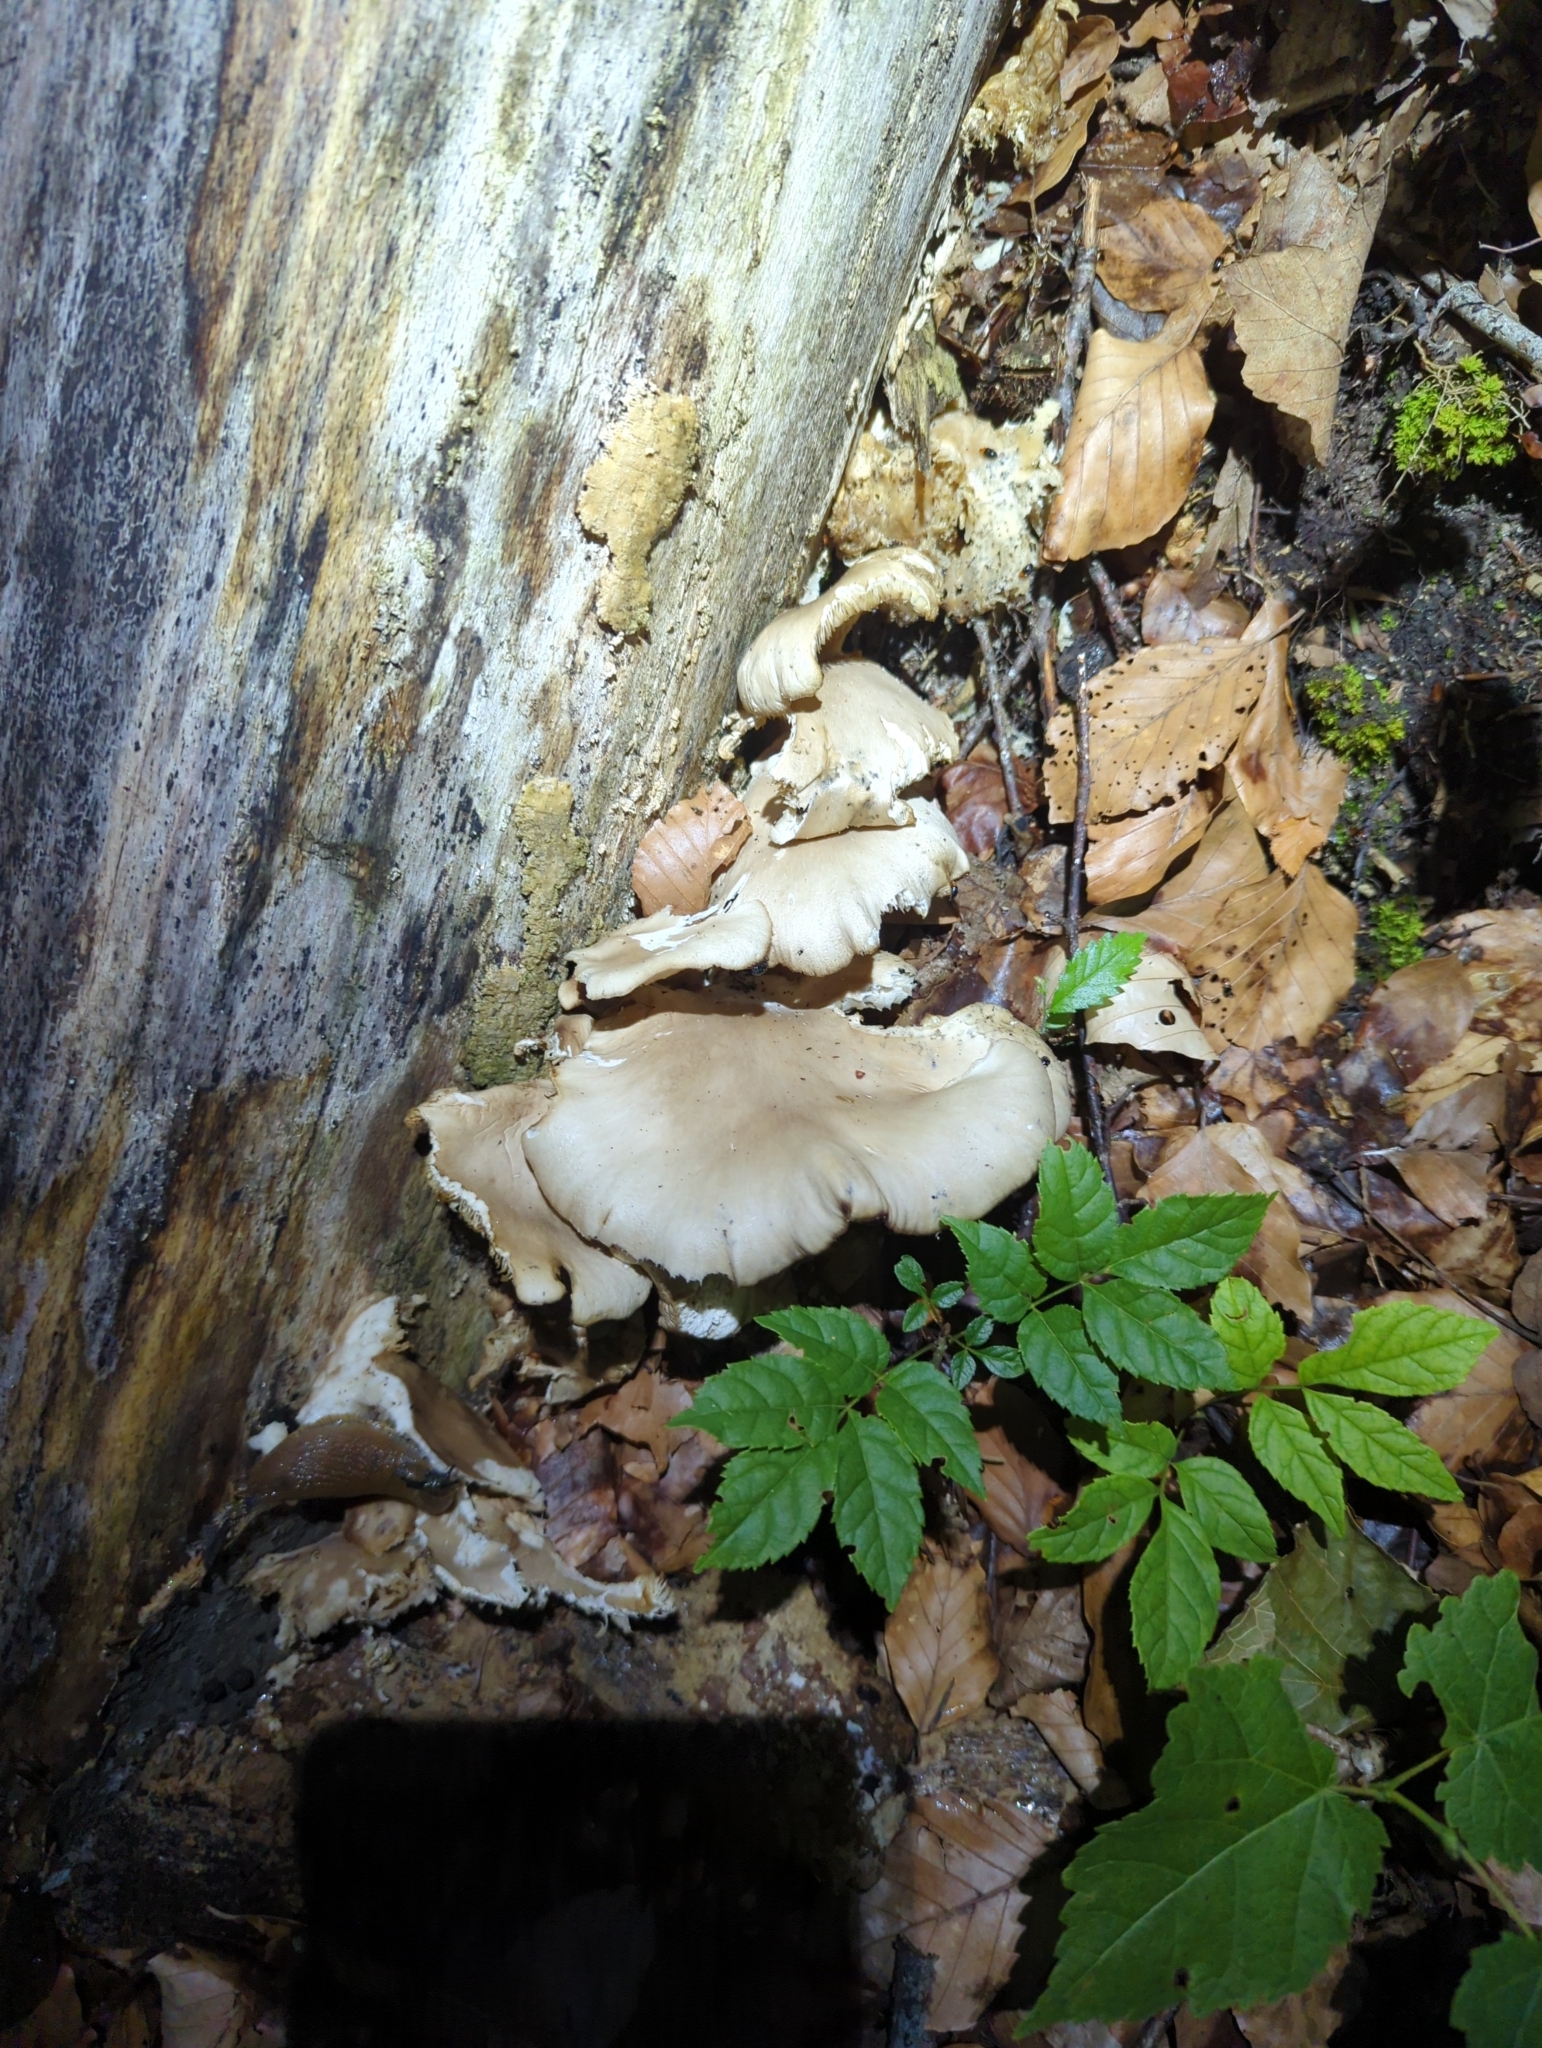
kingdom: Fungi
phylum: Basidiomycota
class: Agaricomycetes
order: Agaricales
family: Pleurotaceae
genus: Pleurotus
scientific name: Pleurotus pulmonarius
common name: Pale oyster
